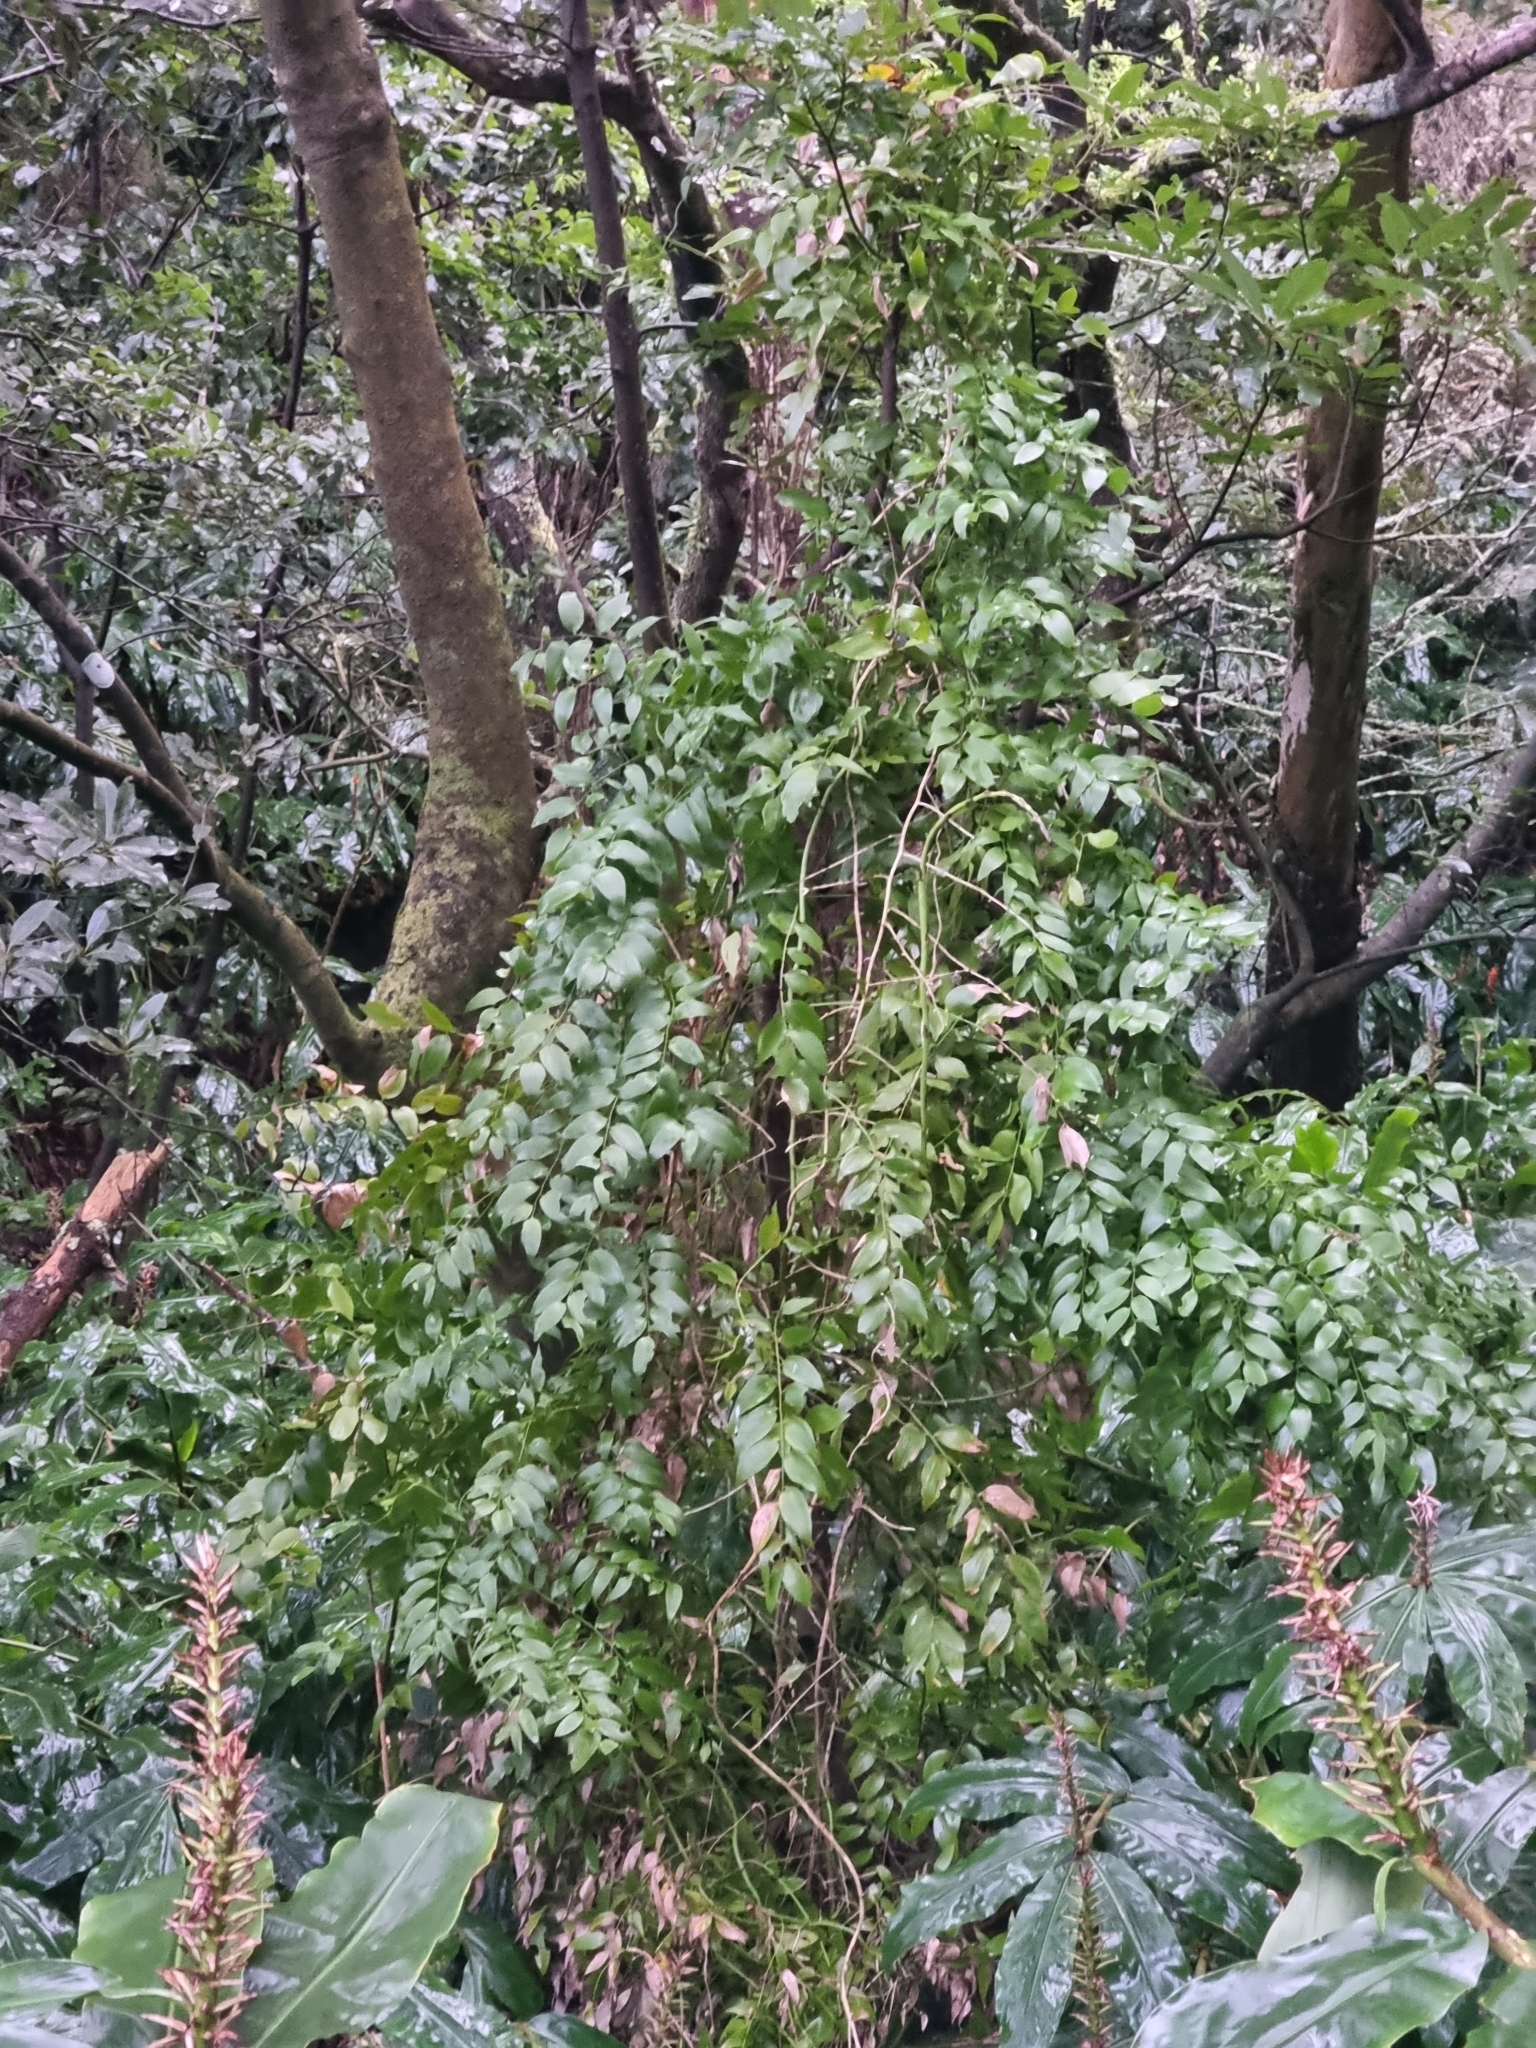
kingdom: Plantae
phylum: Tracheophyta
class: Liliopsida
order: Asparagales
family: Asparagaceae
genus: Semele
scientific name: Semele androgyna
